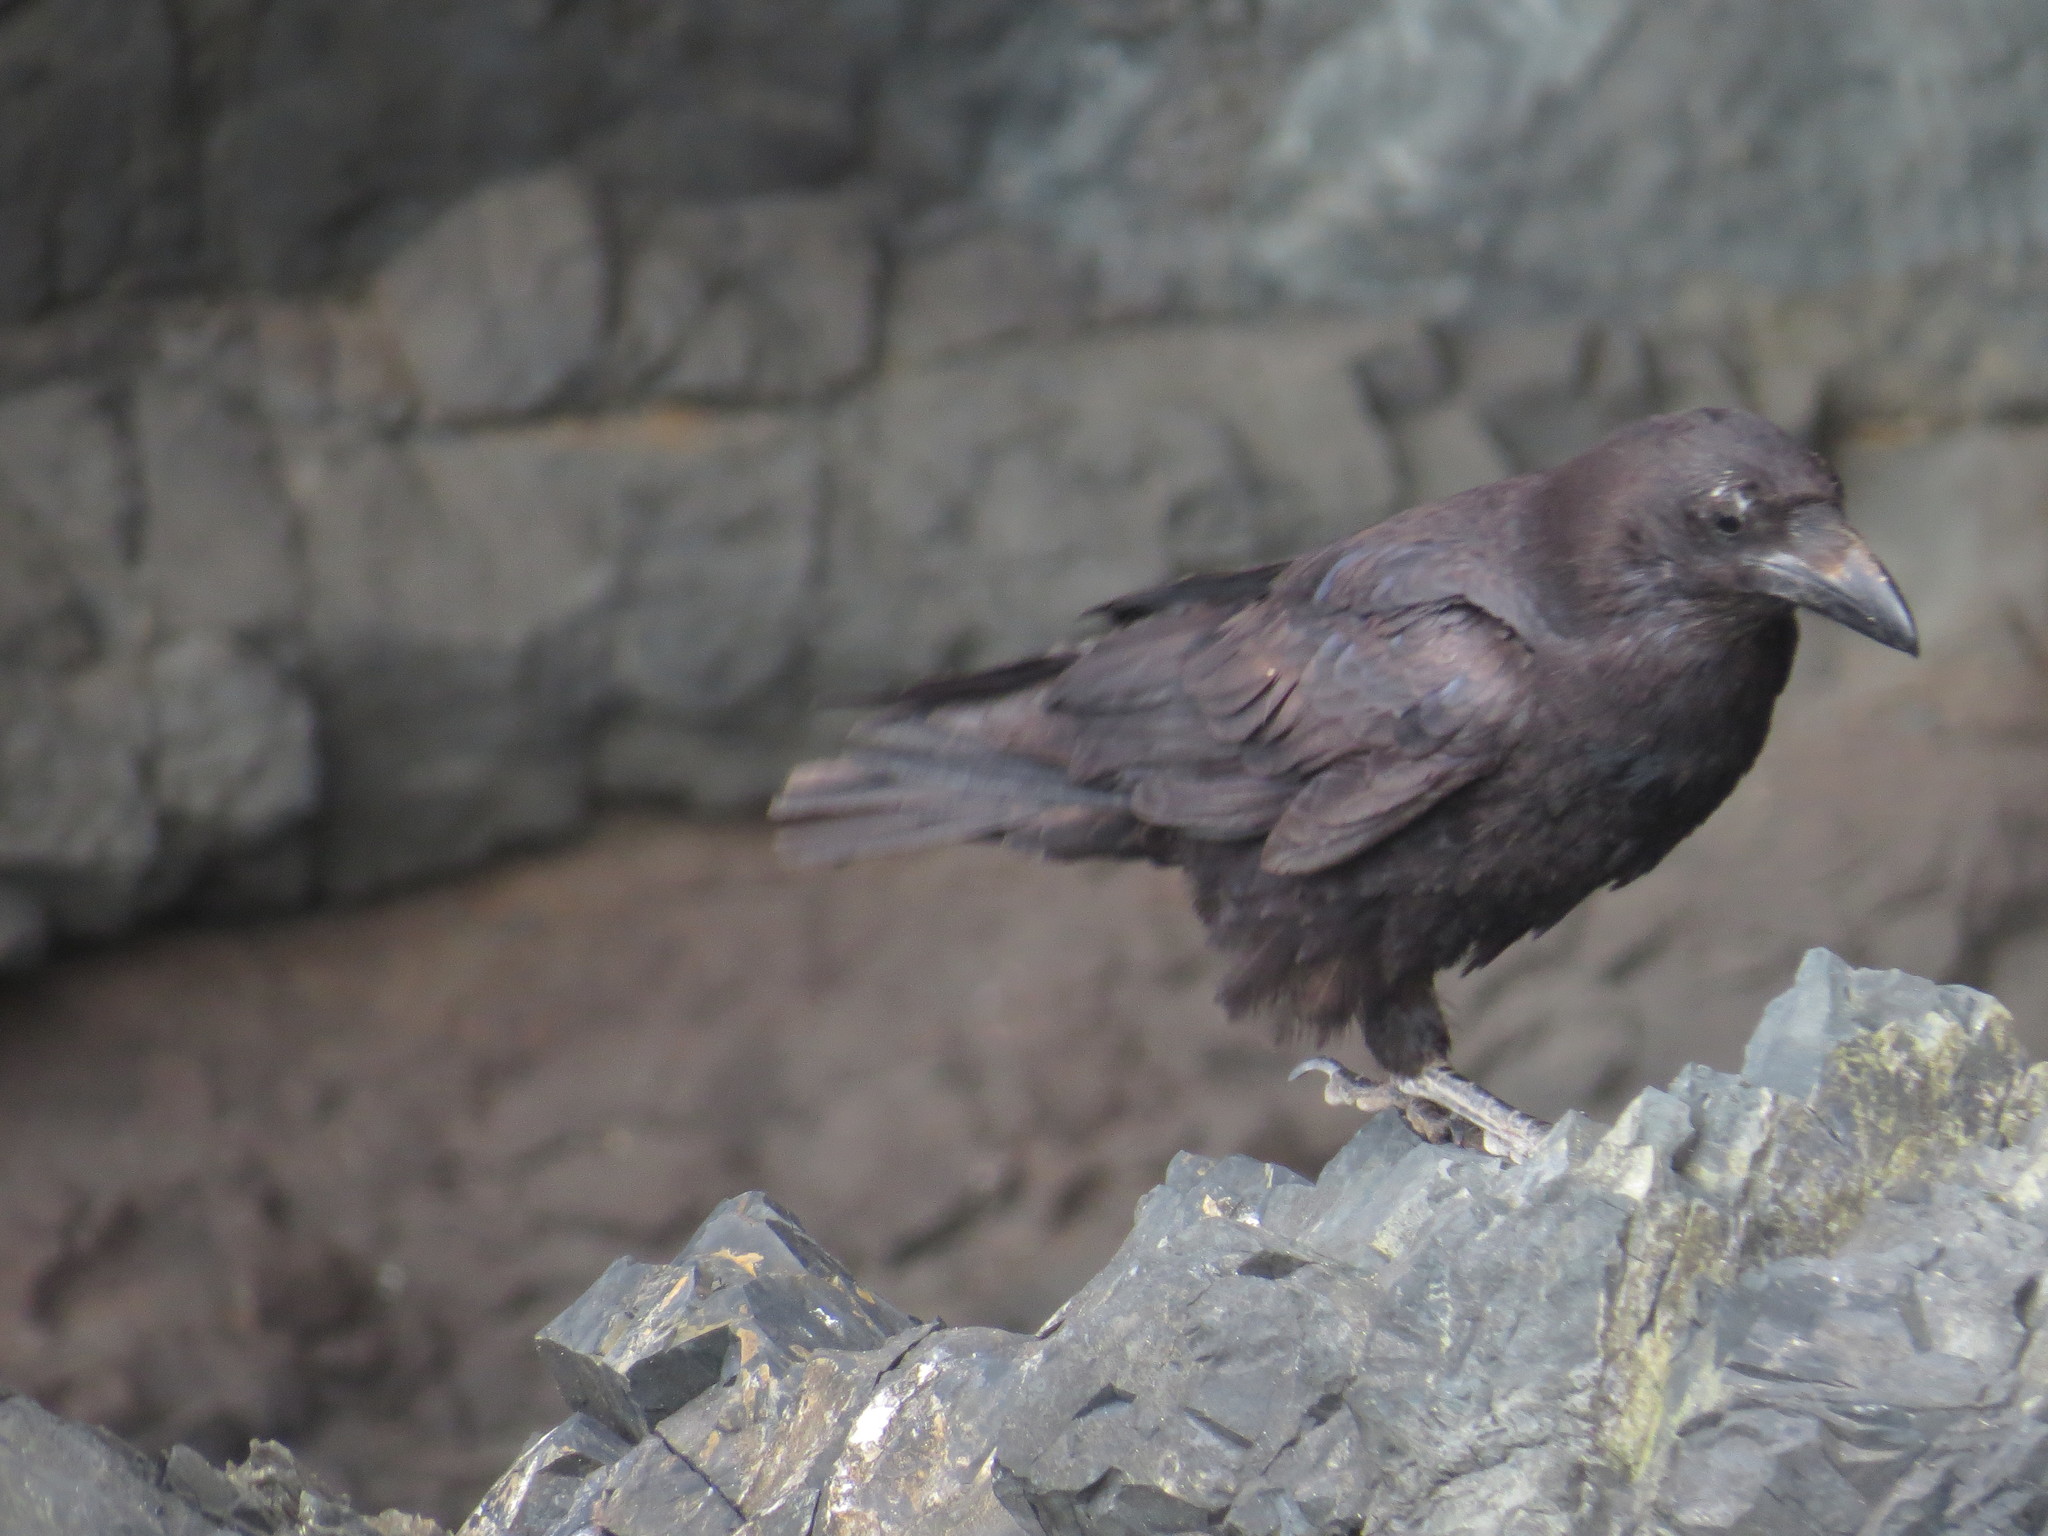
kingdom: Animalia
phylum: Chordata
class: Aves
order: Passeriformes
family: Corvidae
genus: Corvus
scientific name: Corvus corax
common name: Common raven
